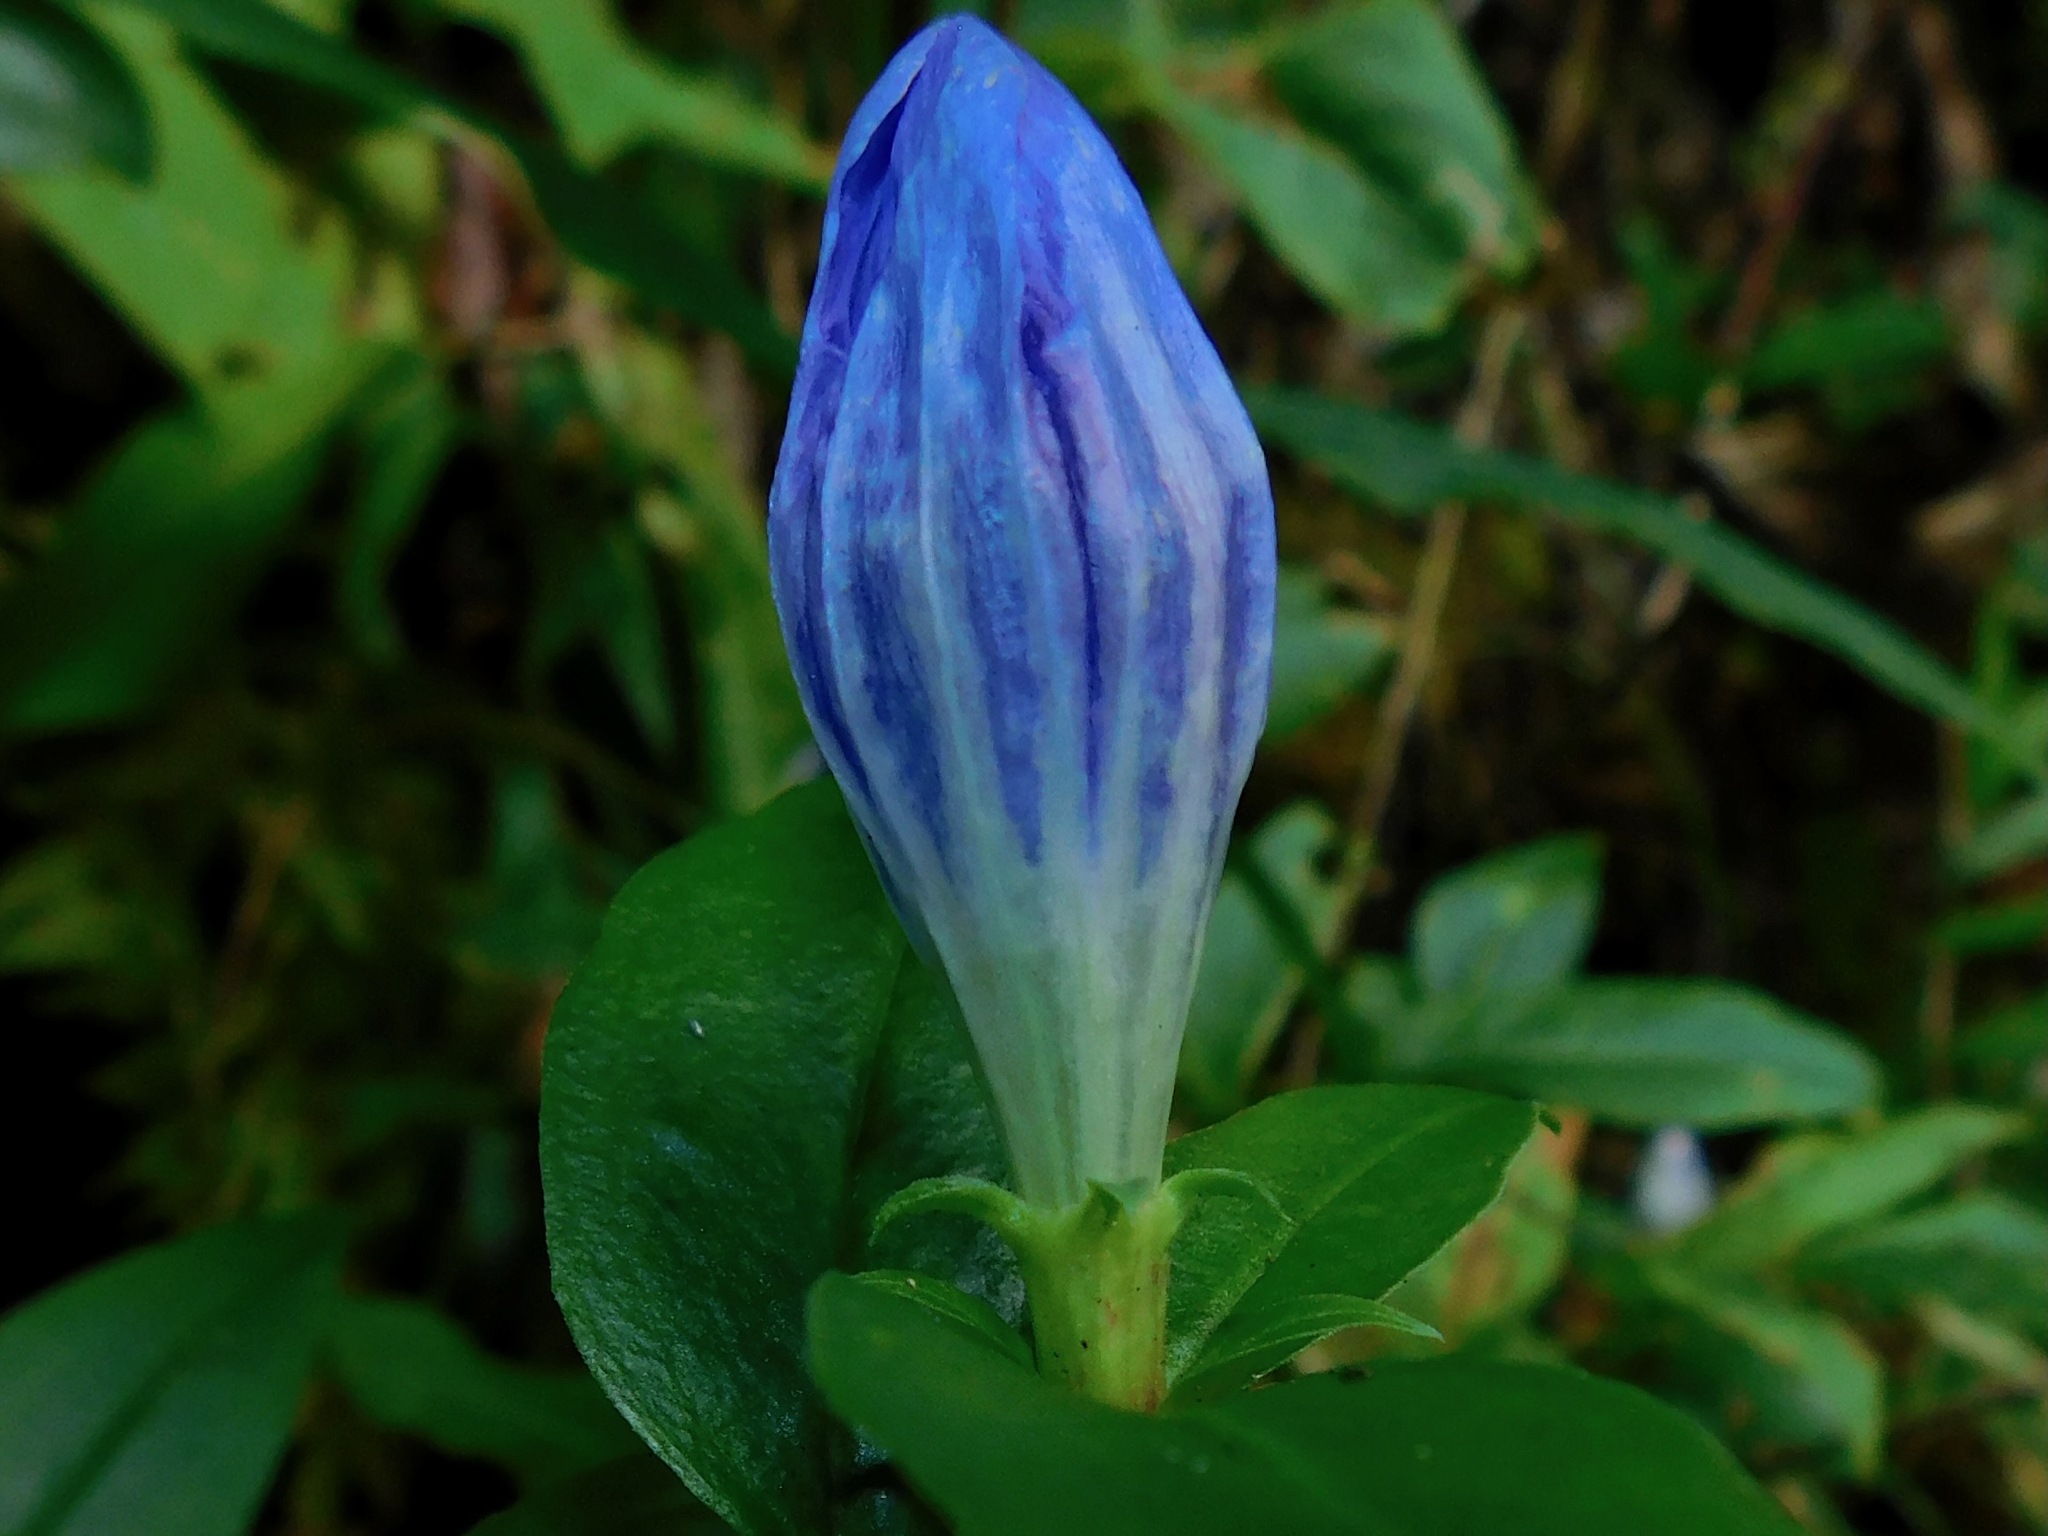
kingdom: Plantae
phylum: Tracheophyta
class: Magnoliopsida
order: Gentianales
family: Gentianaceae
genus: Gentiana
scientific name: Gentiana saponaria
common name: Soapwort gentian
